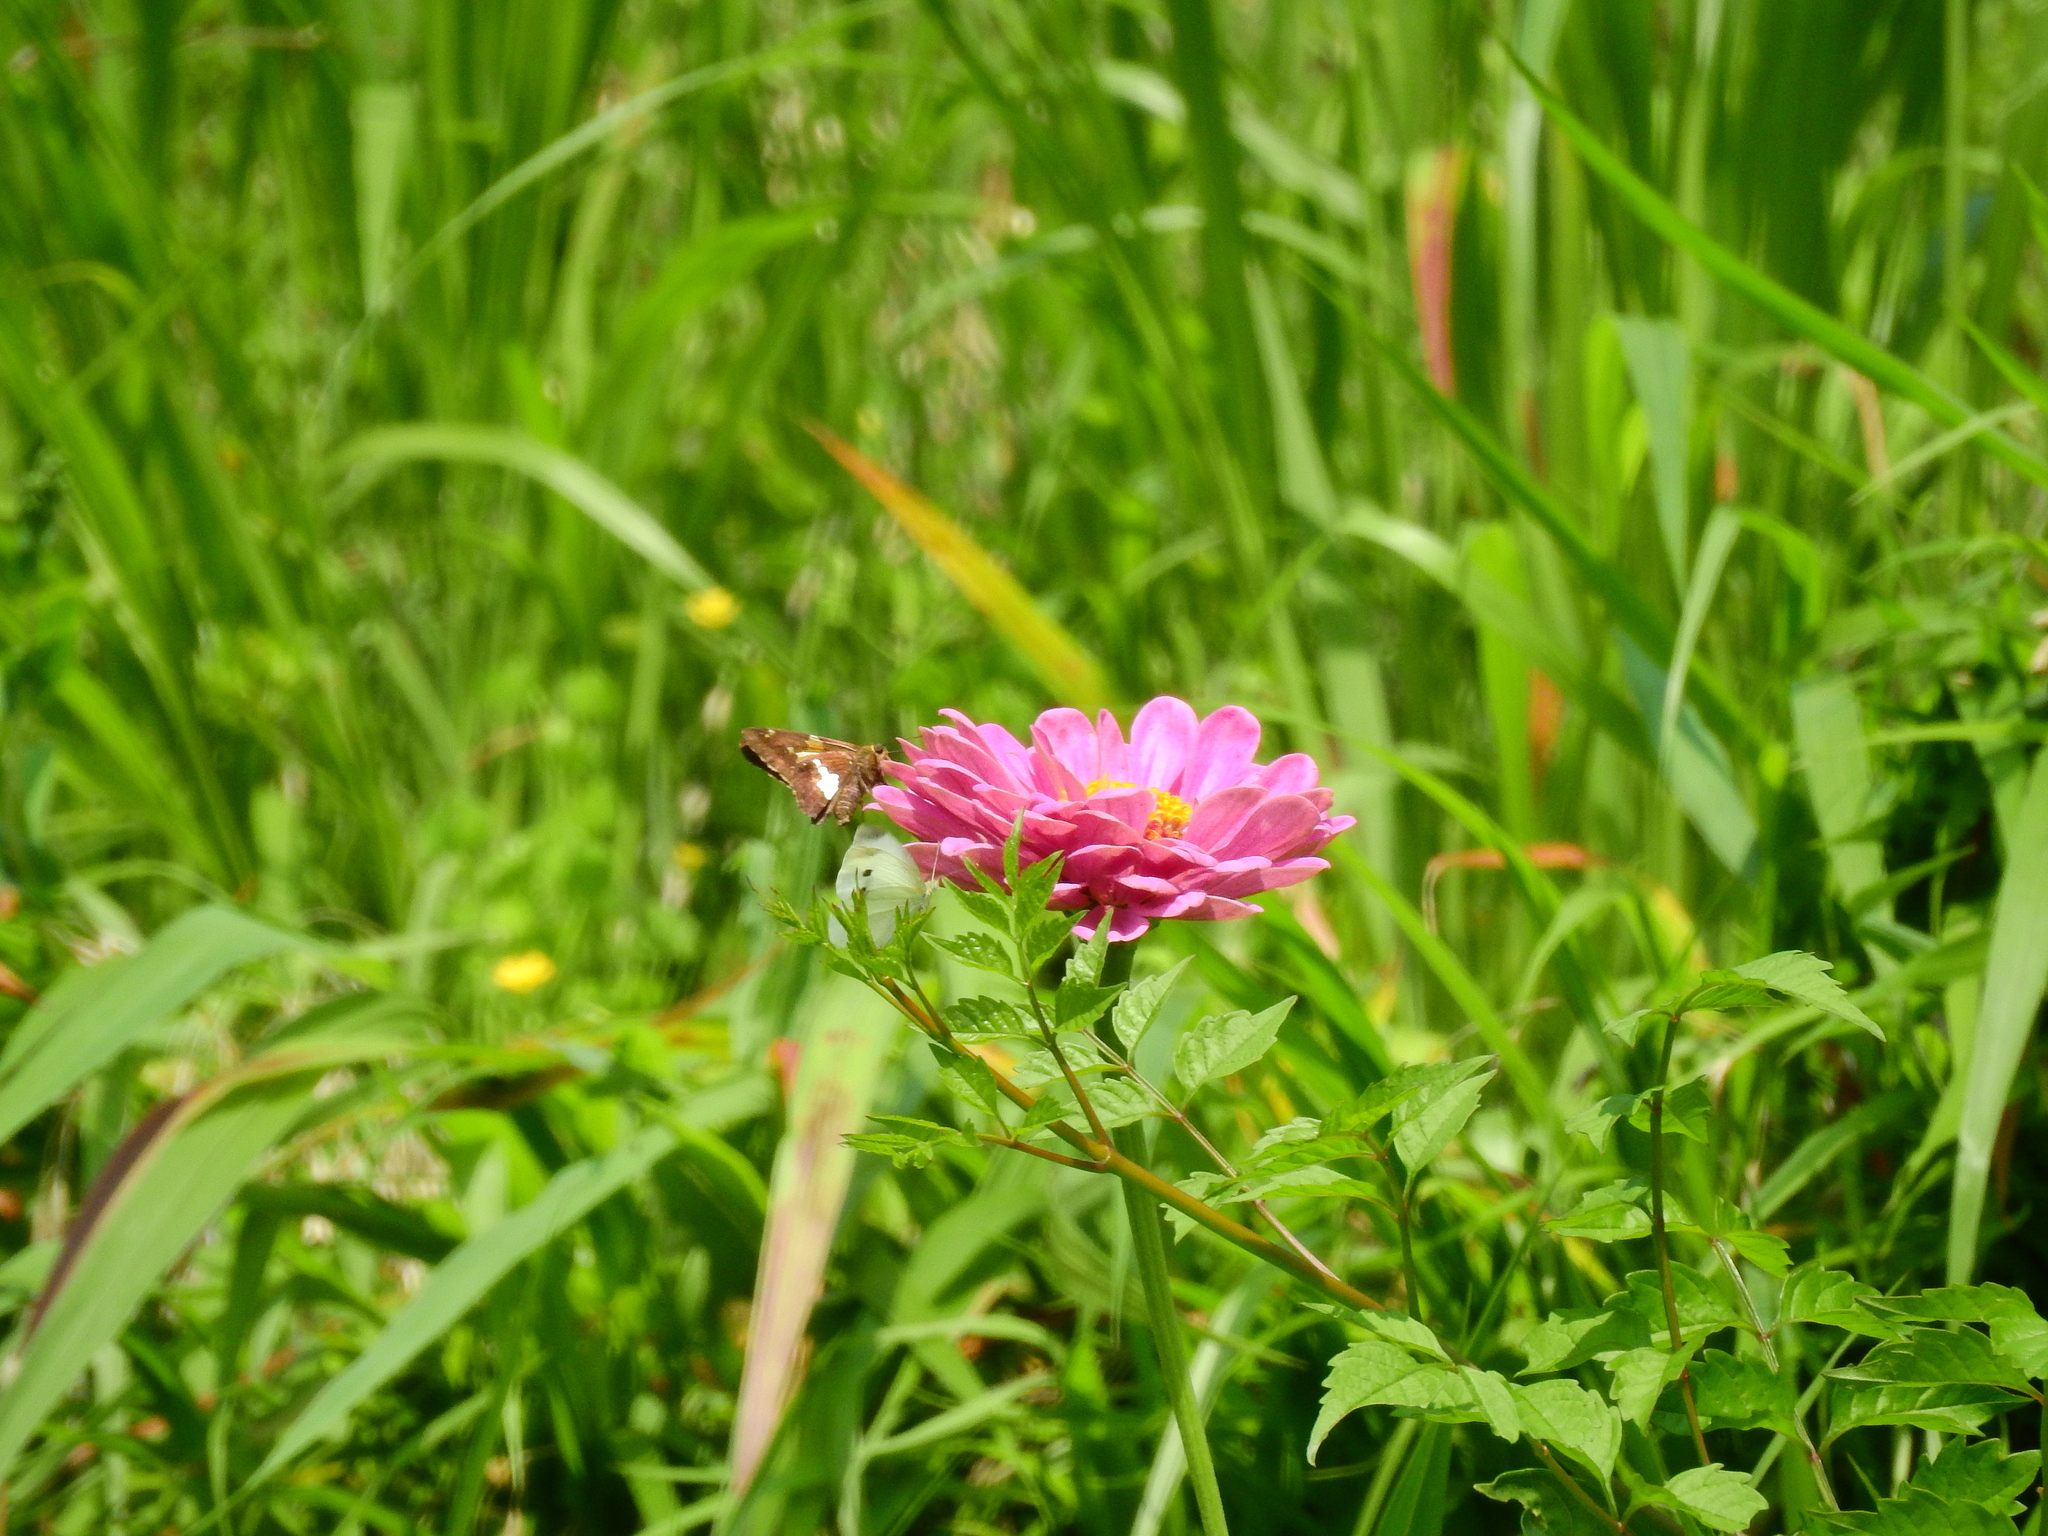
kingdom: Animalia
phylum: Arthropoda
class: Insecta
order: Lepidoptera
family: Hesperiidae
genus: Epargyreus
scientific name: Epargyreus clarus
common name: Silver-spotted skipper
